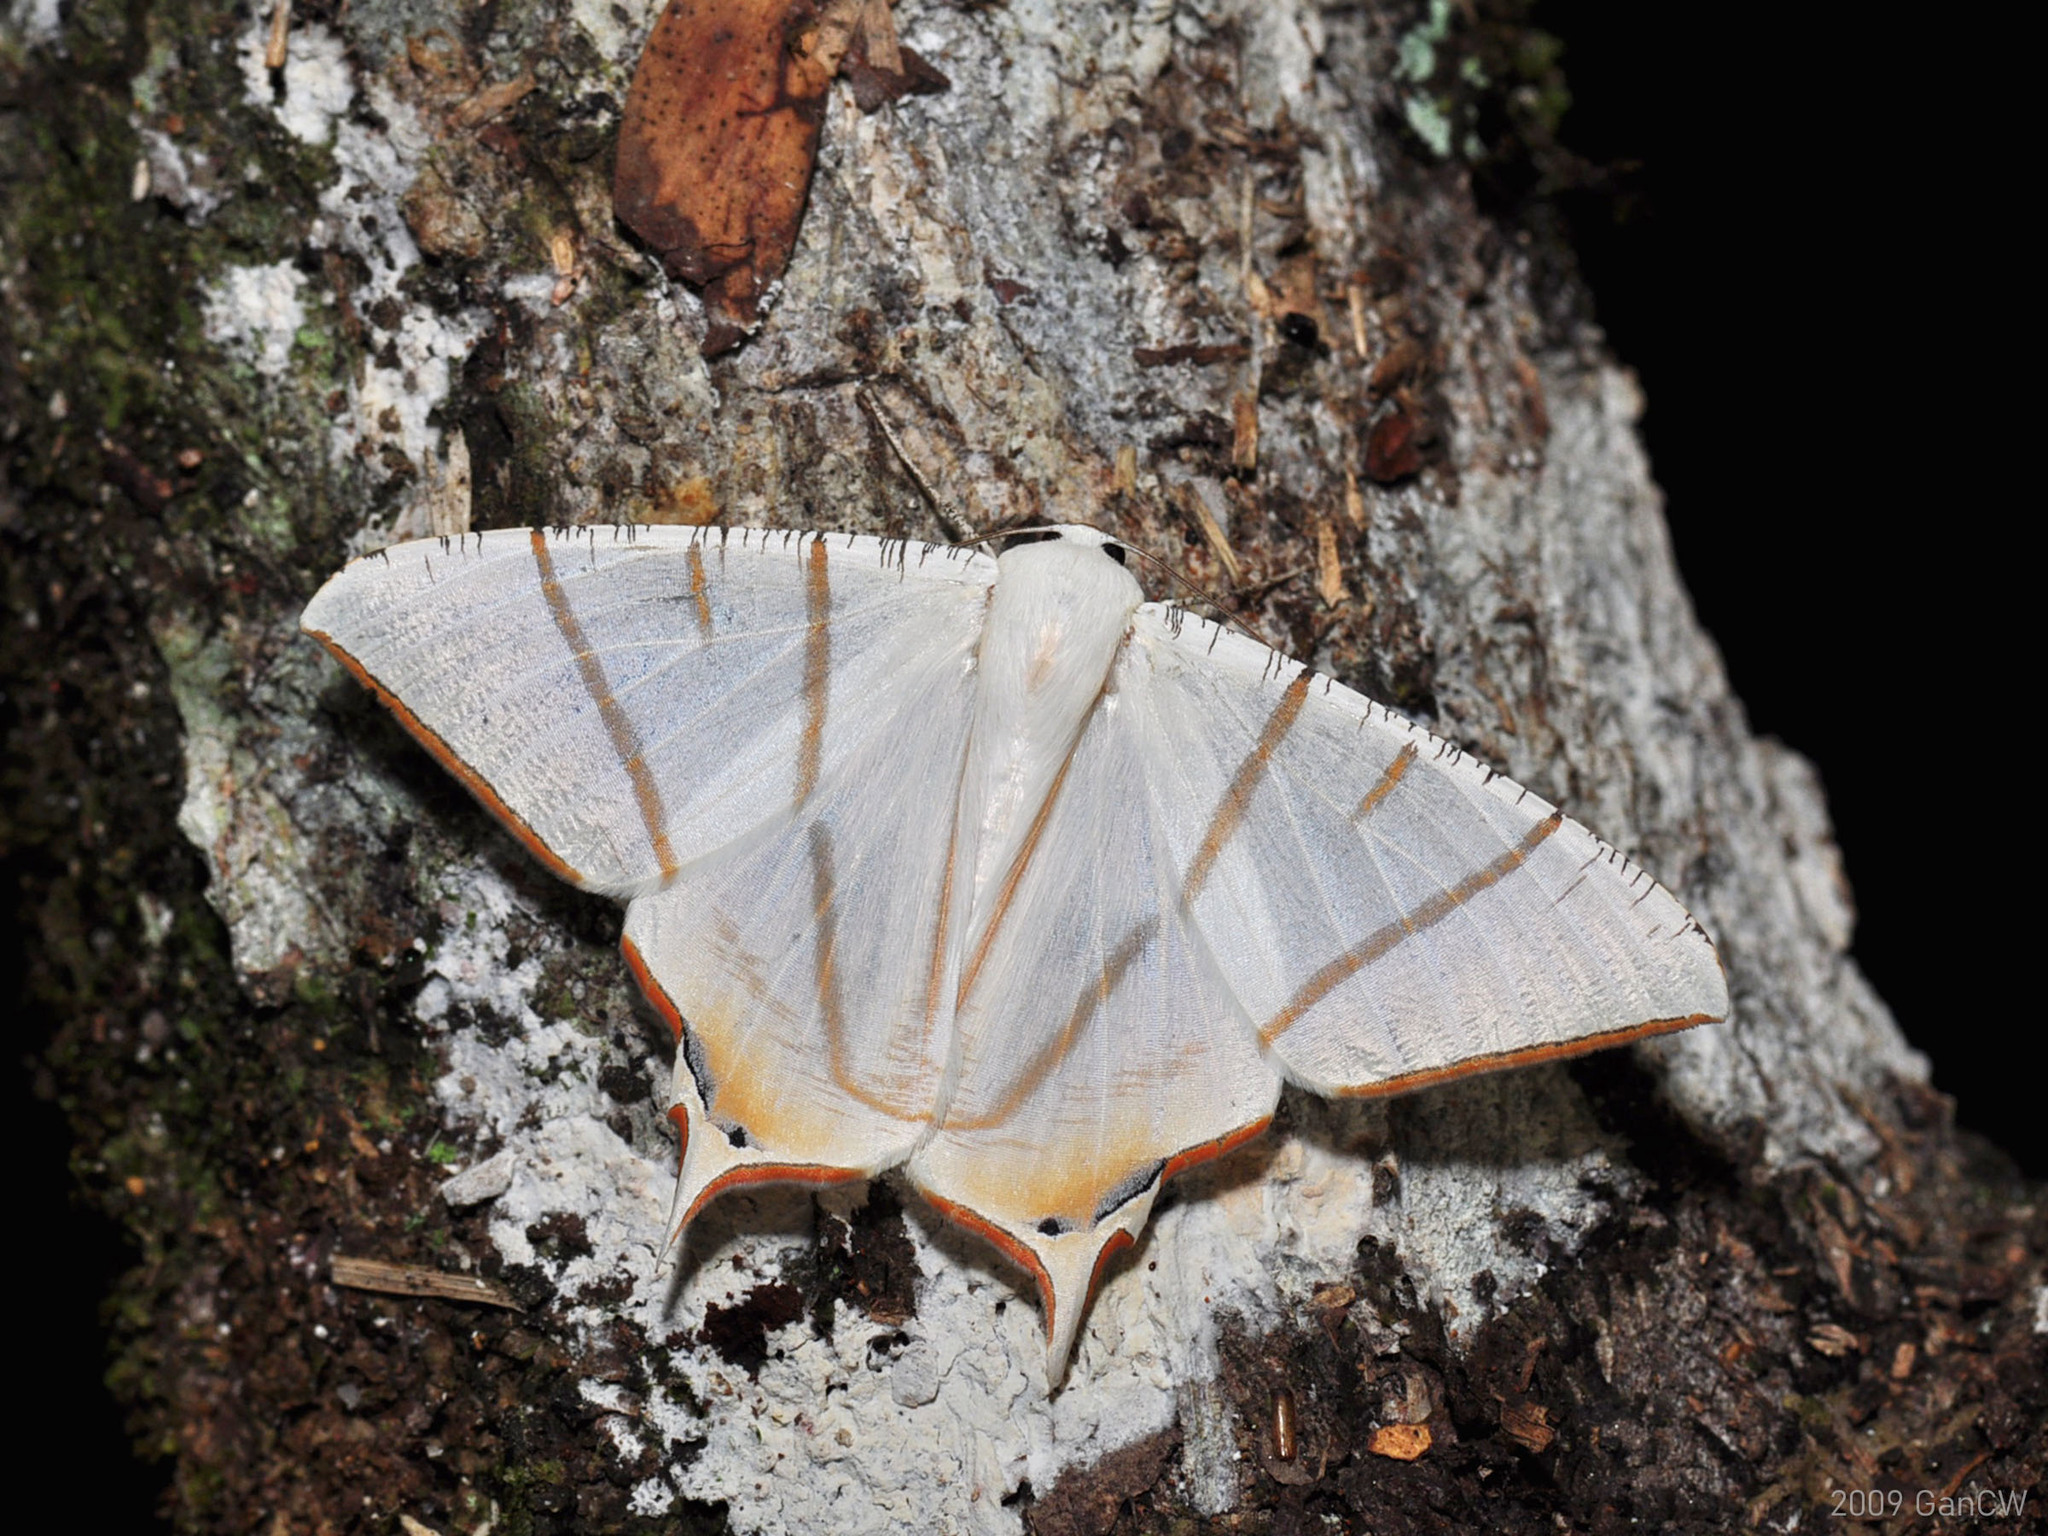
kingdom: Animalia
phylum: Arthropoda
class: Insecta
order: Lepidoptera
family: Geometridae
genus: Ourapteryx
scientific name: Ourapteryx claretta
